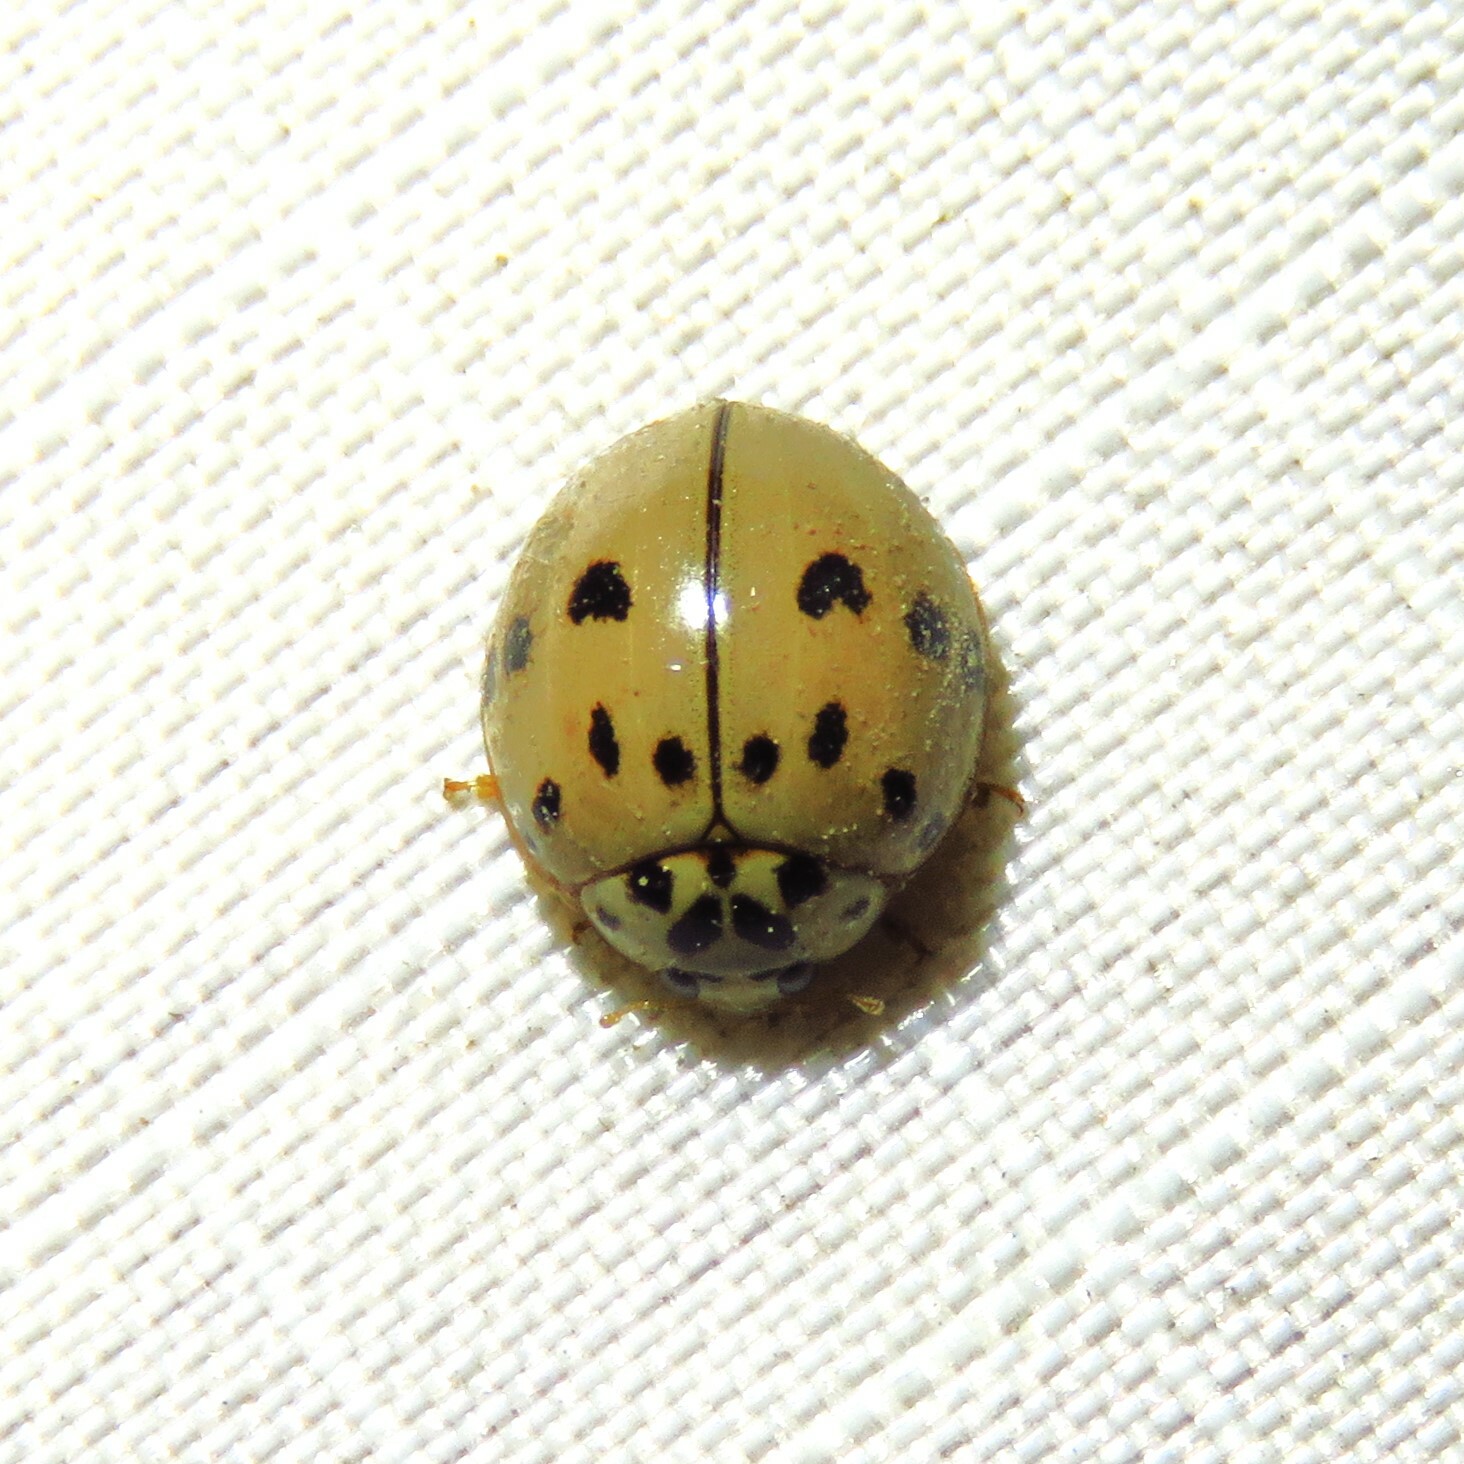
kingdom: Animalia
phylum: Arthropoda
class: Insecta
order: Coleoptera
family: Coccinellidae
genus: Olla
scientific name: Olla v-nigrum
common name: Ashy gray lady beetle
